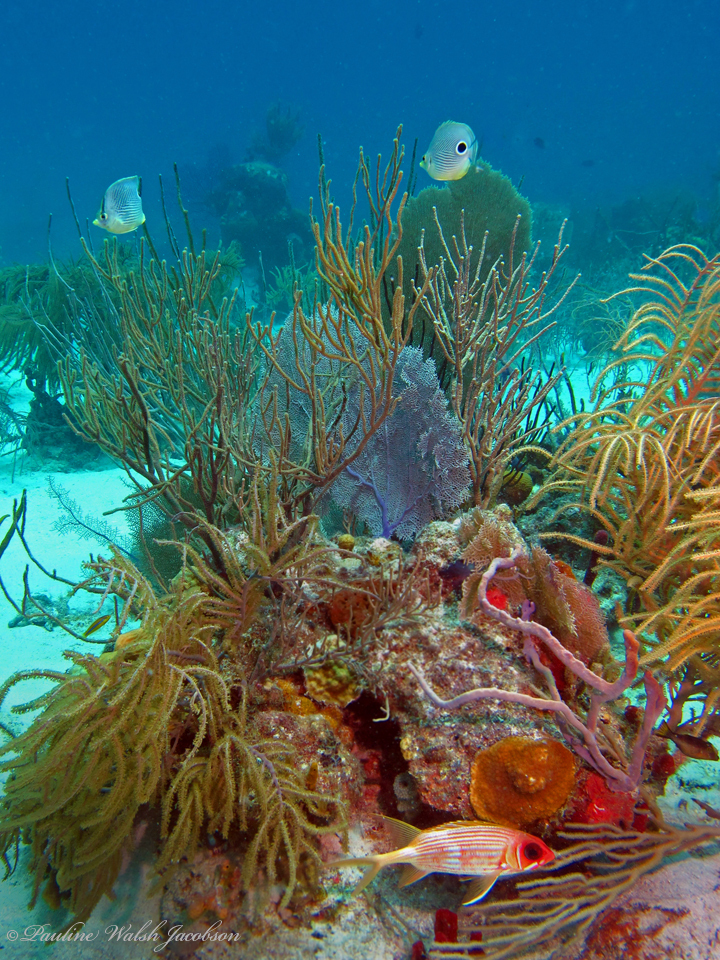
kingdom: Animalia
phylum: Chordata
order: Perciformes
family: Chaetodontidae
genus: Chaetodon
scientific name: Chaetodon capistratus
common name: Kete
